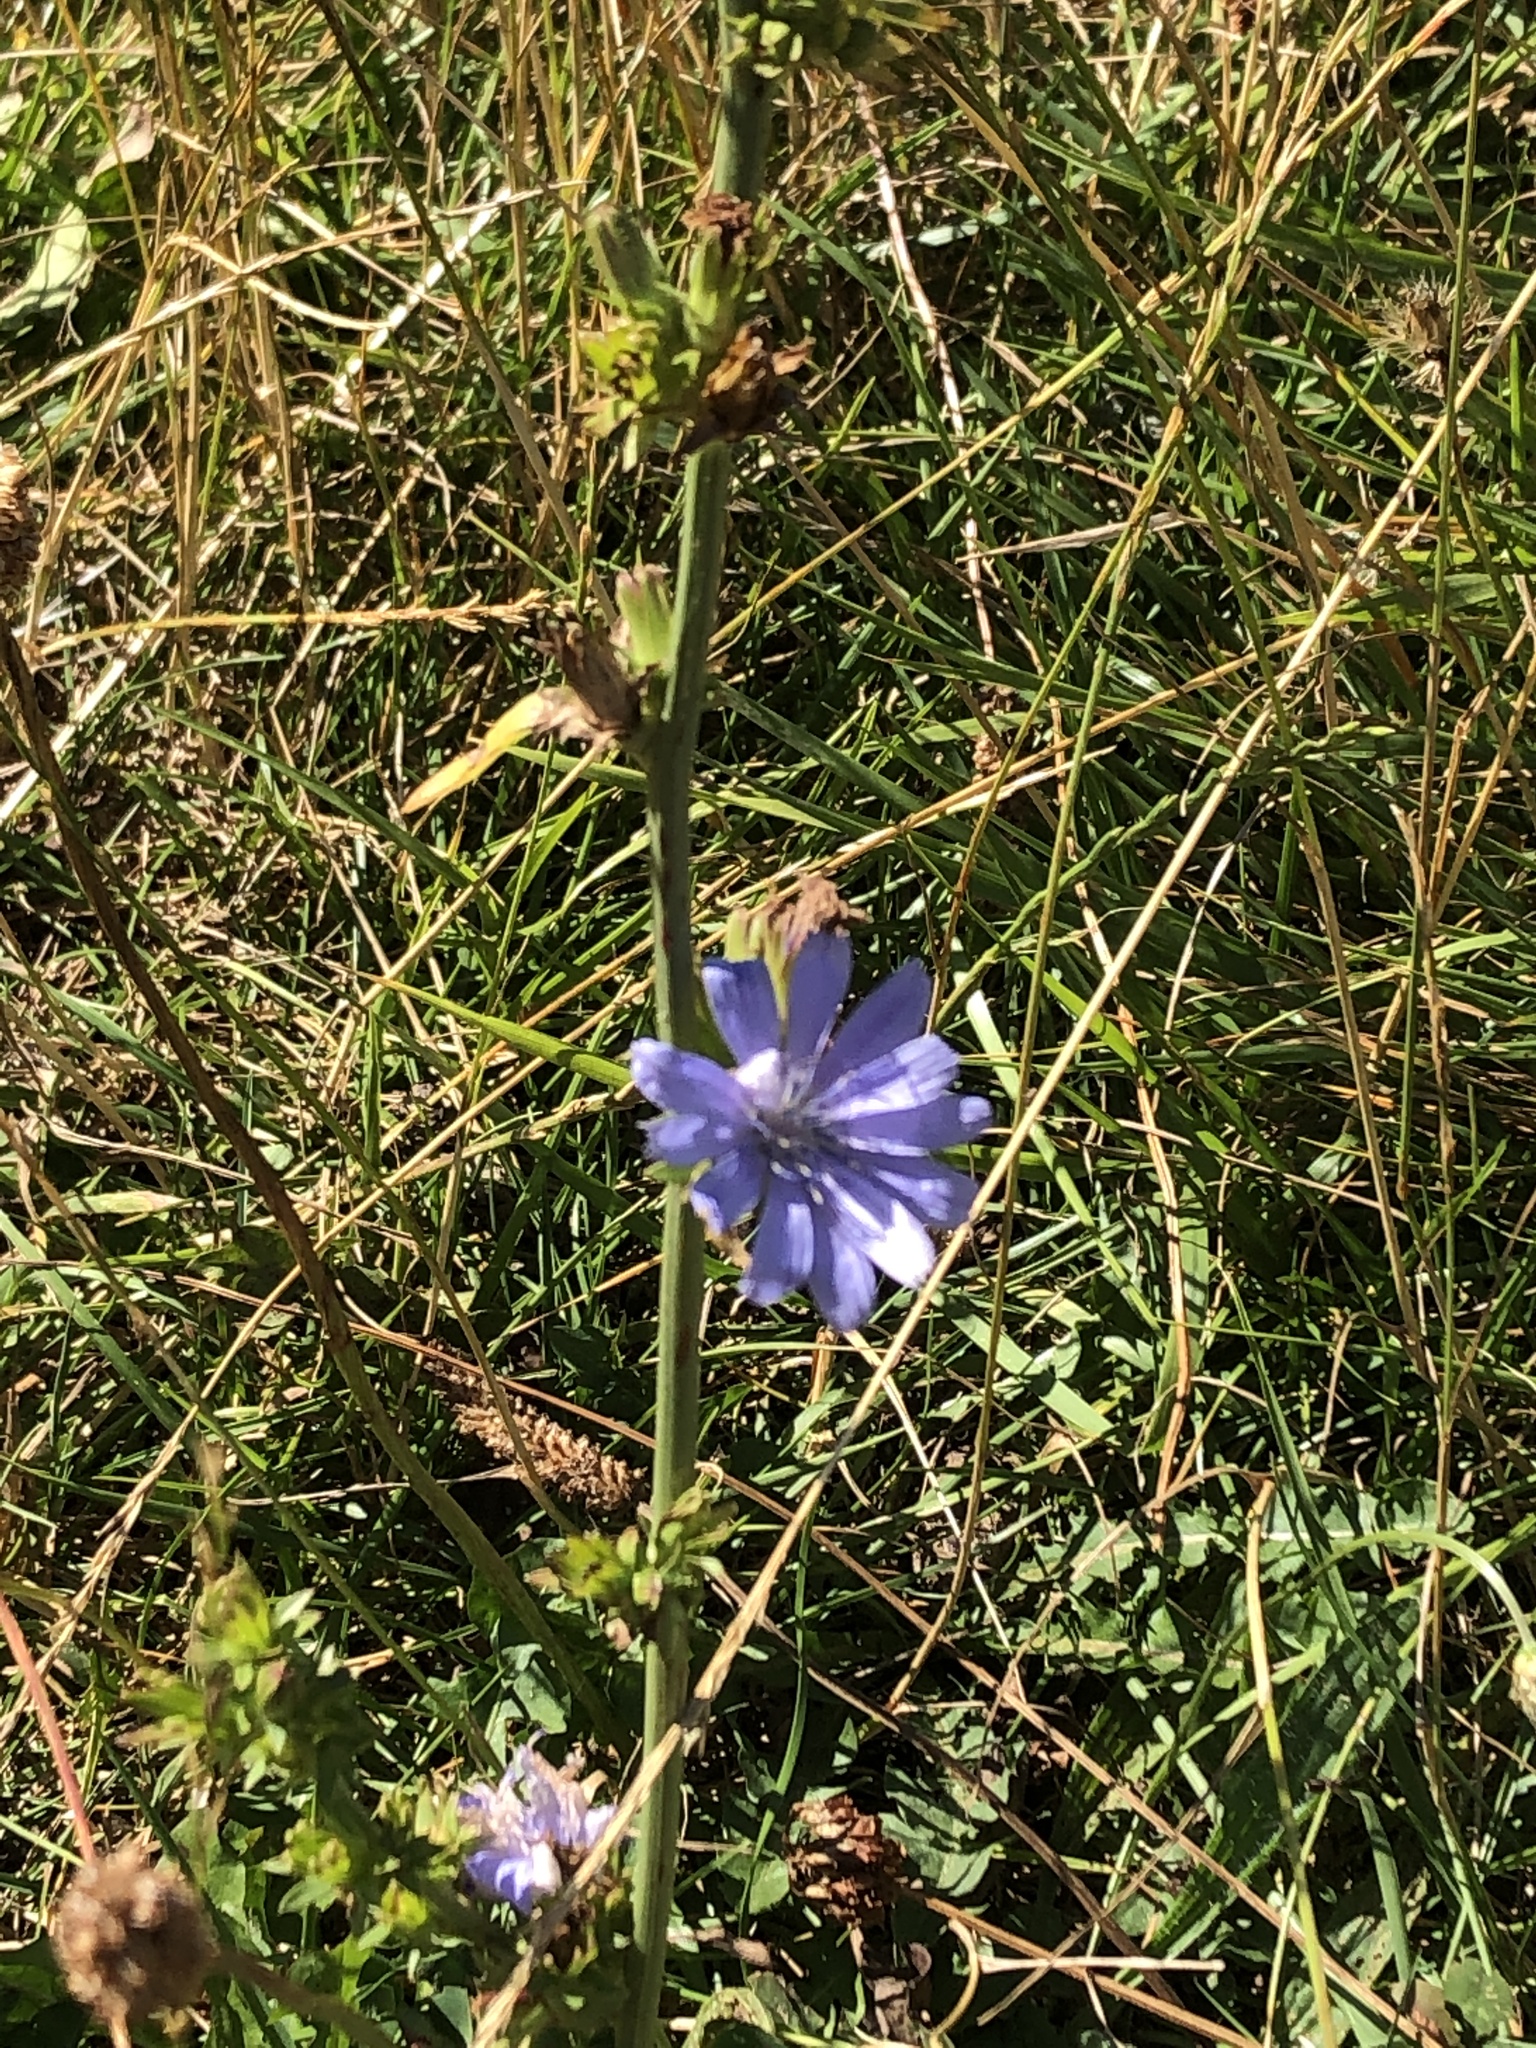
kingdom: Plantae
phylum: Tracheophyta
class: Magnoliopsida
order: Asterales
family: Asteraceae
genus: Cichorium
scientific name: Cichorium intybus
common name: Chicory
